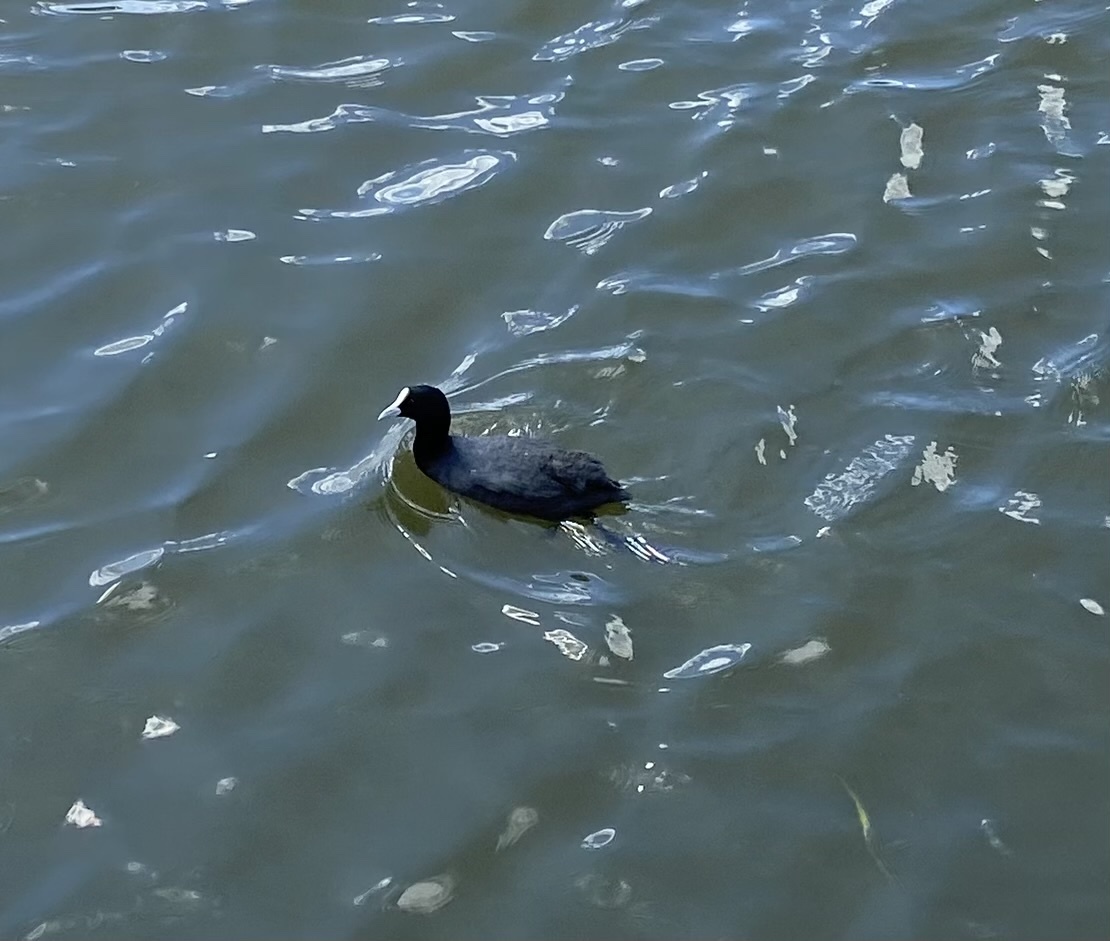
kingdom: Animalia
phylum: Chordata
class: Aves
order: Gruiformes
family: Rallidae
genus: Fulica
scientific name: Fulica atra
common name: Eurasian coot
